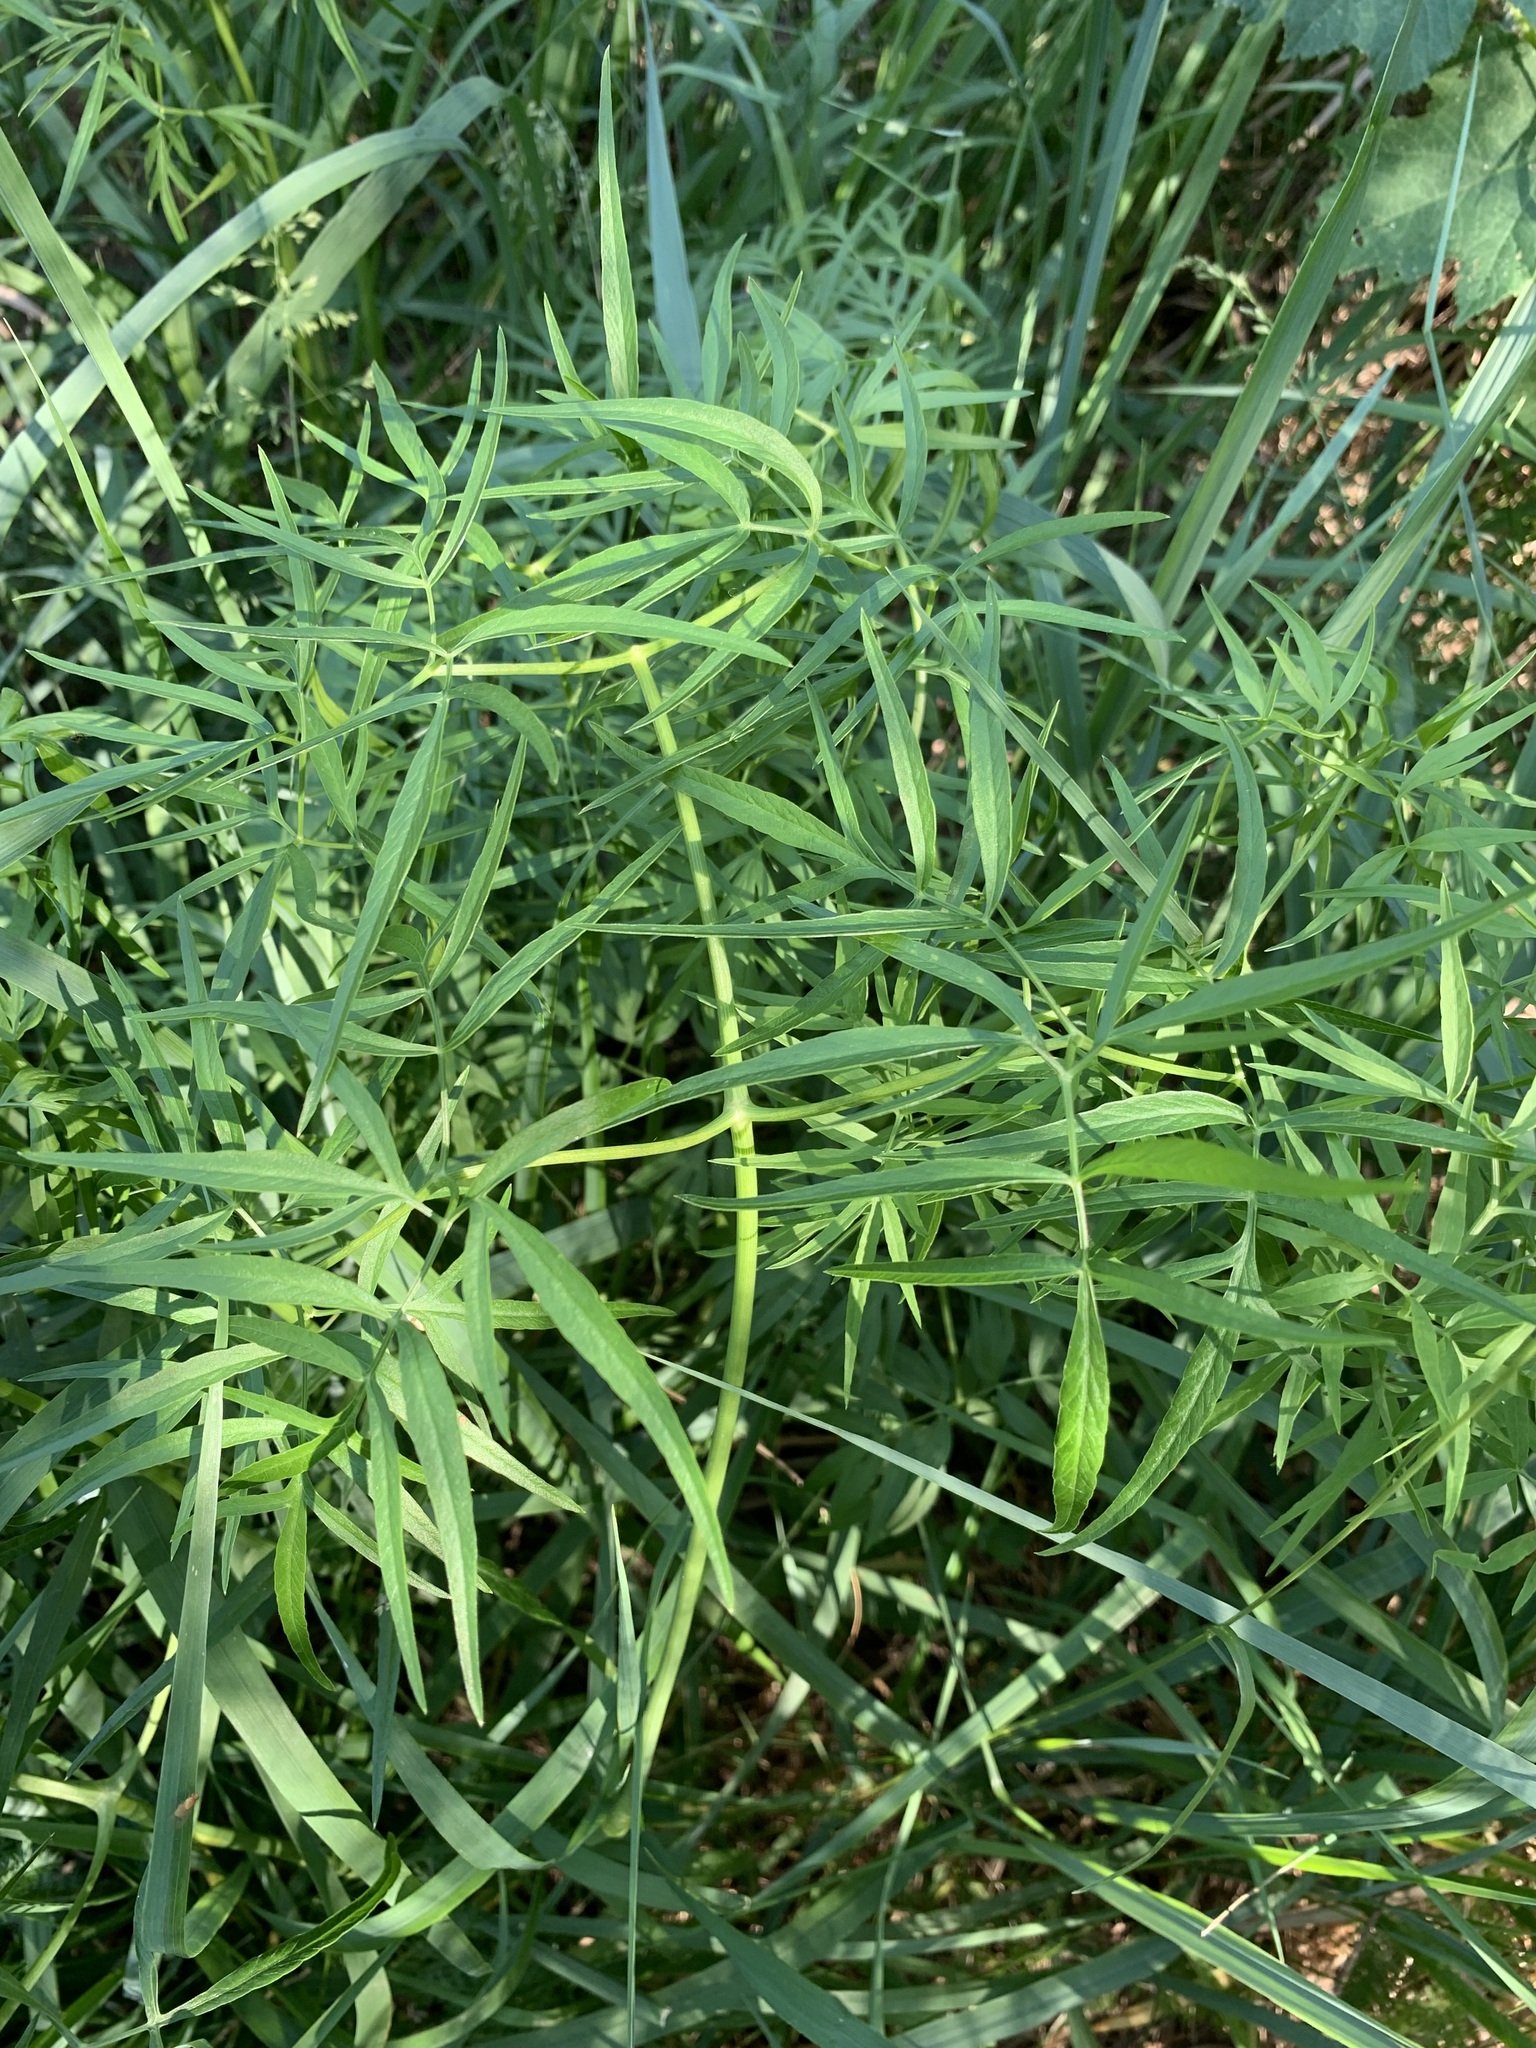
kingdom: Plantae
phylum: Tracheophyta
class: Magnoliopsida
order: Apiales
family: Apiaceae
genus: Cenolophium
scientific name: Cenolophium fischeri
